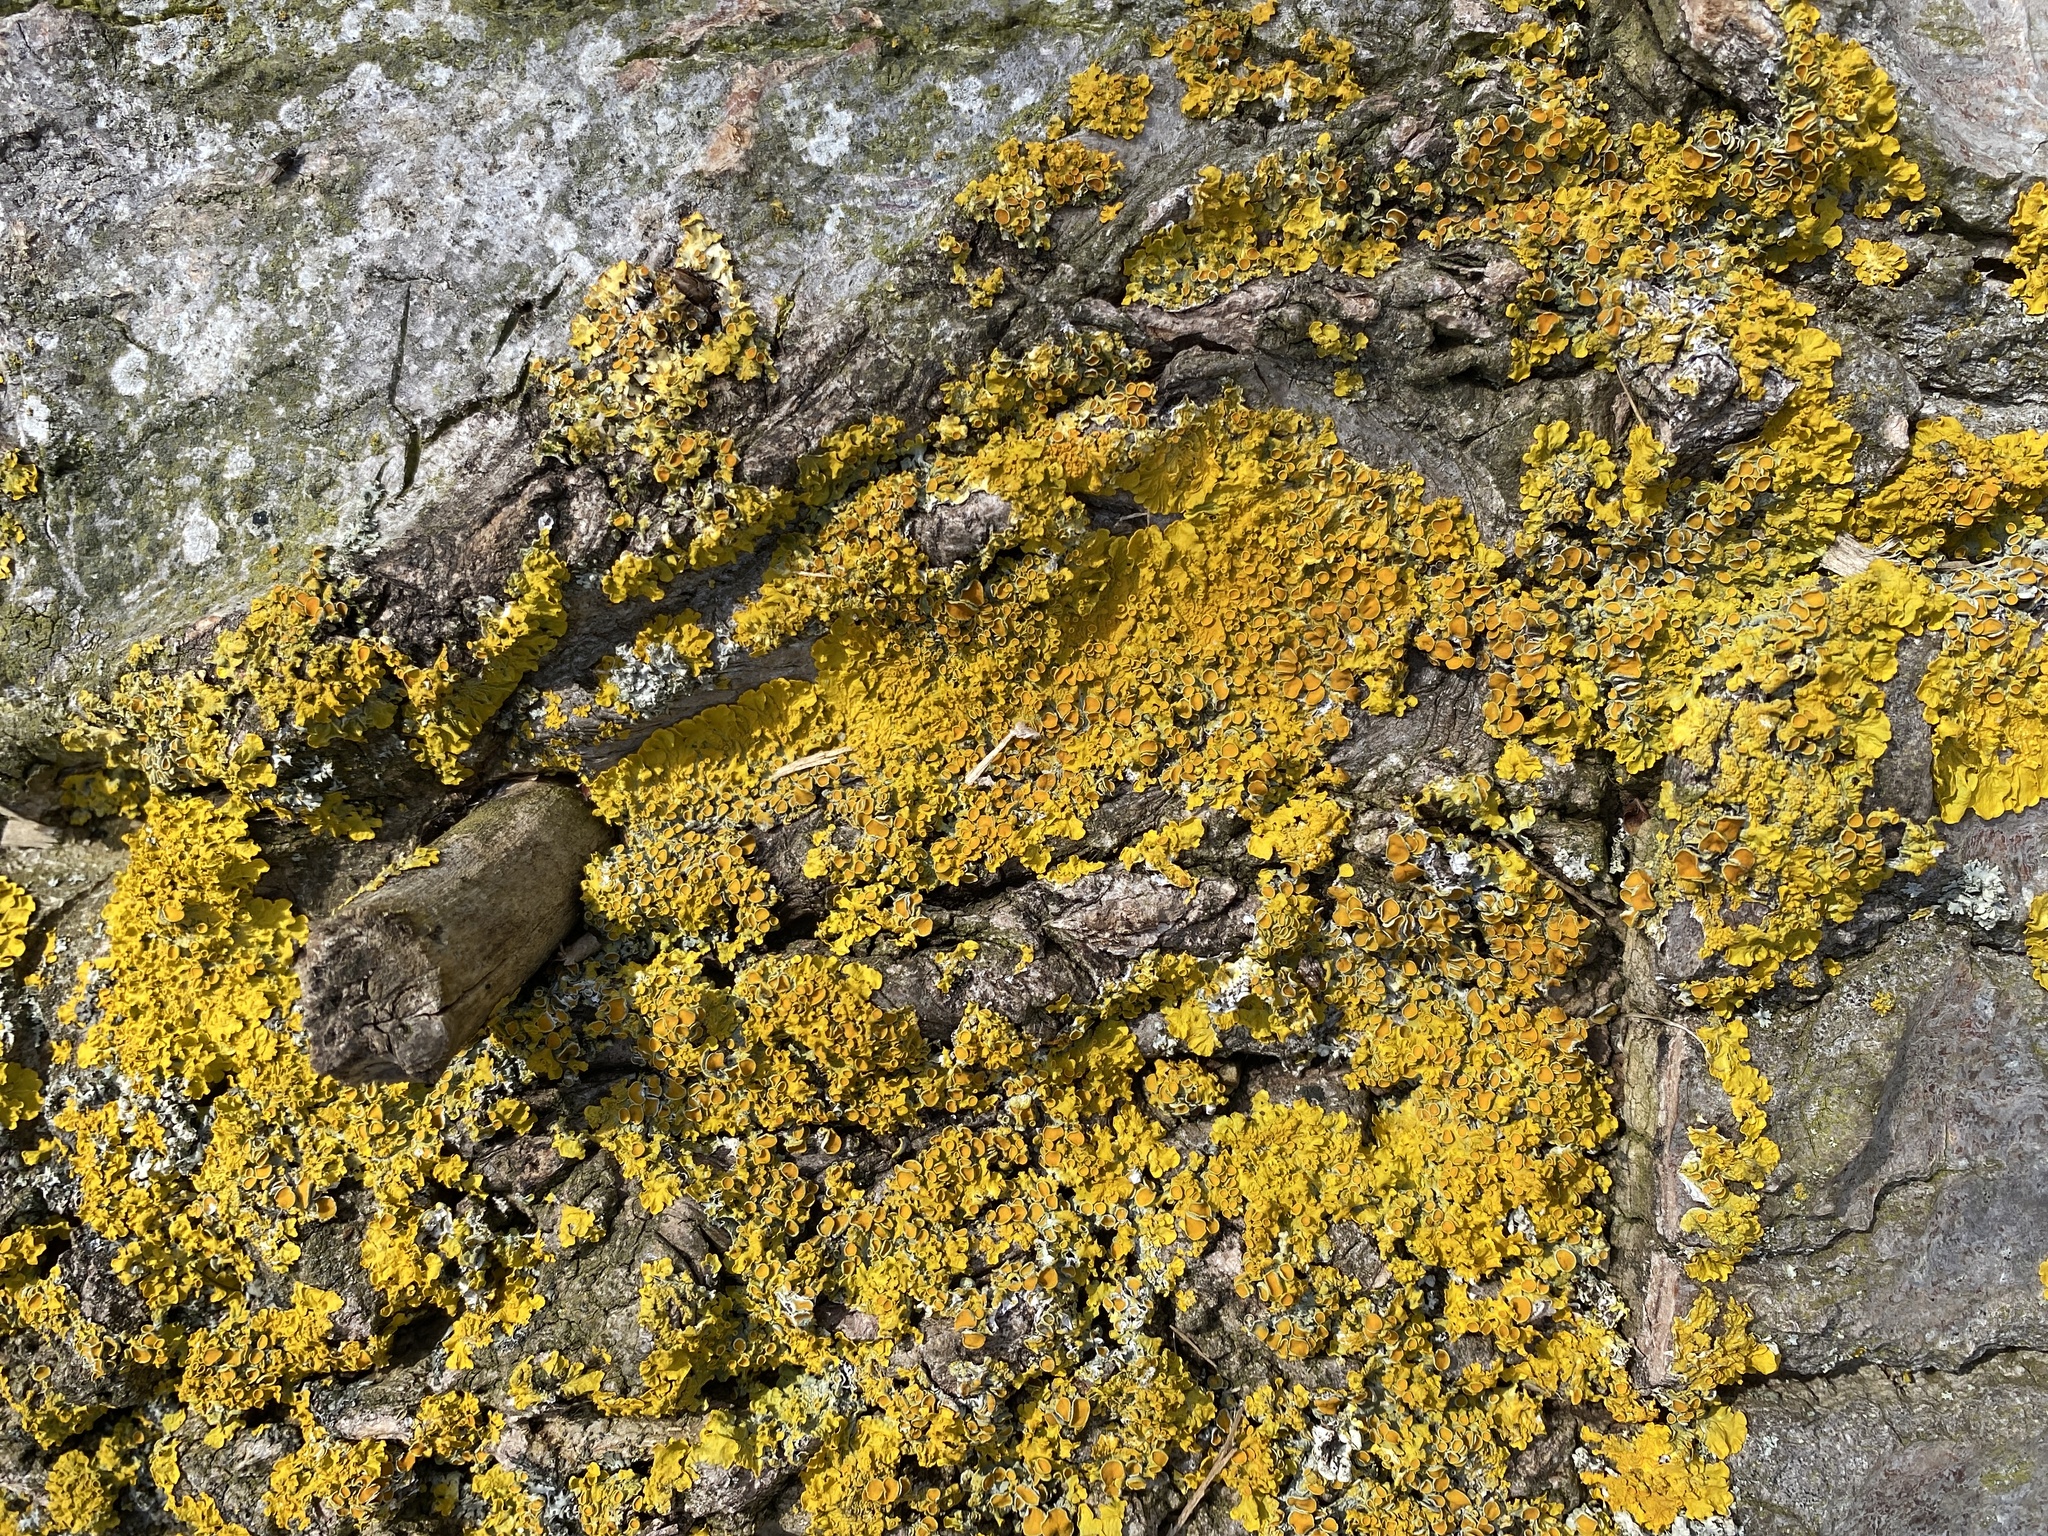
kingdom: Fungi
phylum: Ascomycota
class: Lecanoromycetes
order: Teloschistales
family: Teloschistaceae
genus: Xanthoria
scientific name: Xanthoria parietina
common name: Common orange lichen
